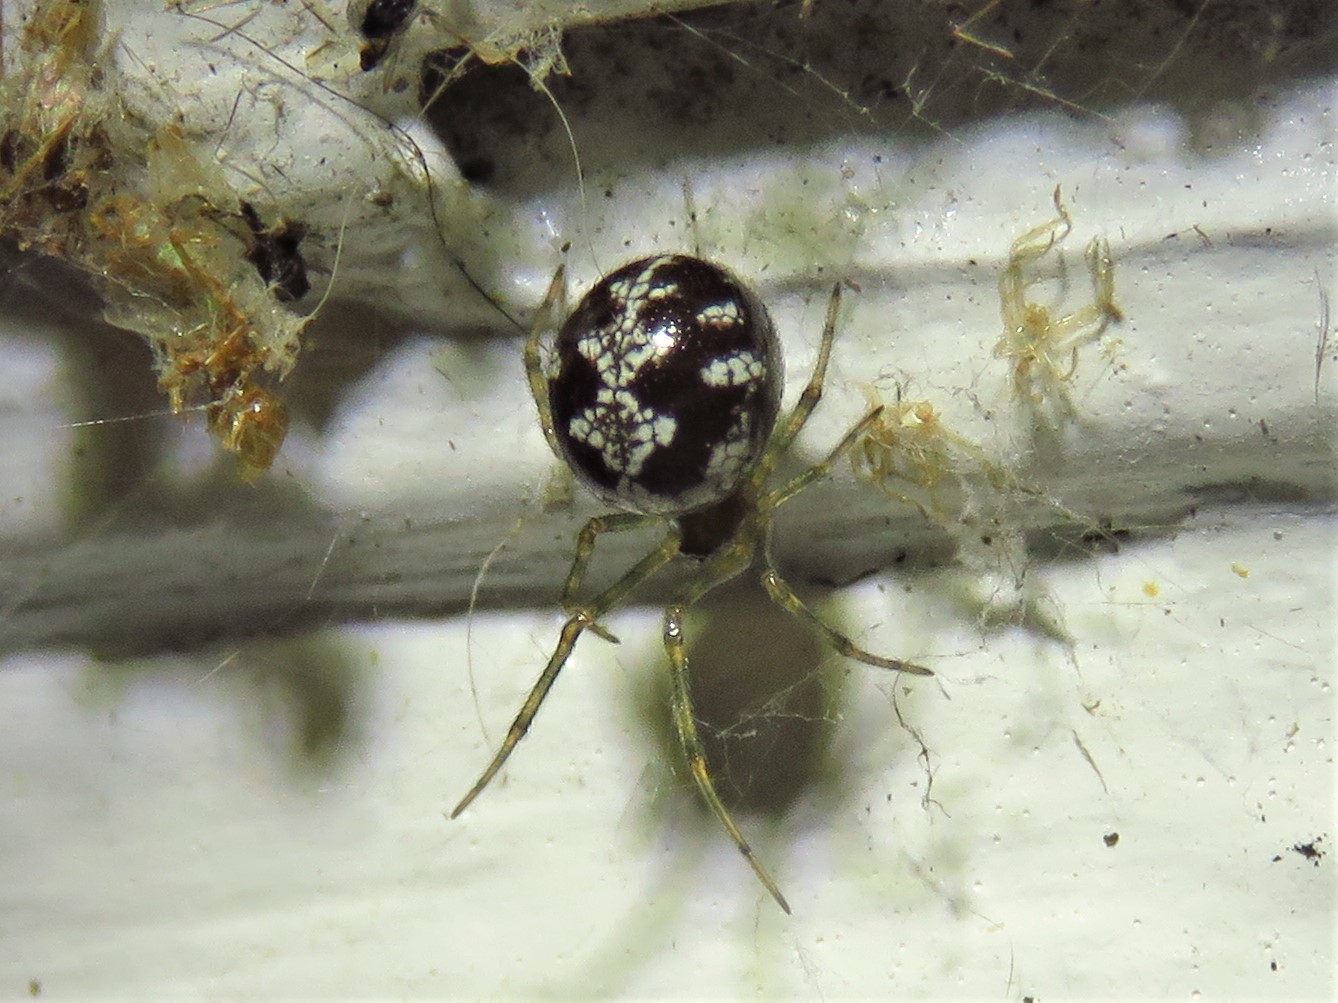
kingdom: Animalia
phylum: Arthropoda
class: Arachnida
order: Araneae
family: Theridiidae
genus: Steatoda
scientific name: Steatoda triangulosa
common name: Triangulate bud spider
